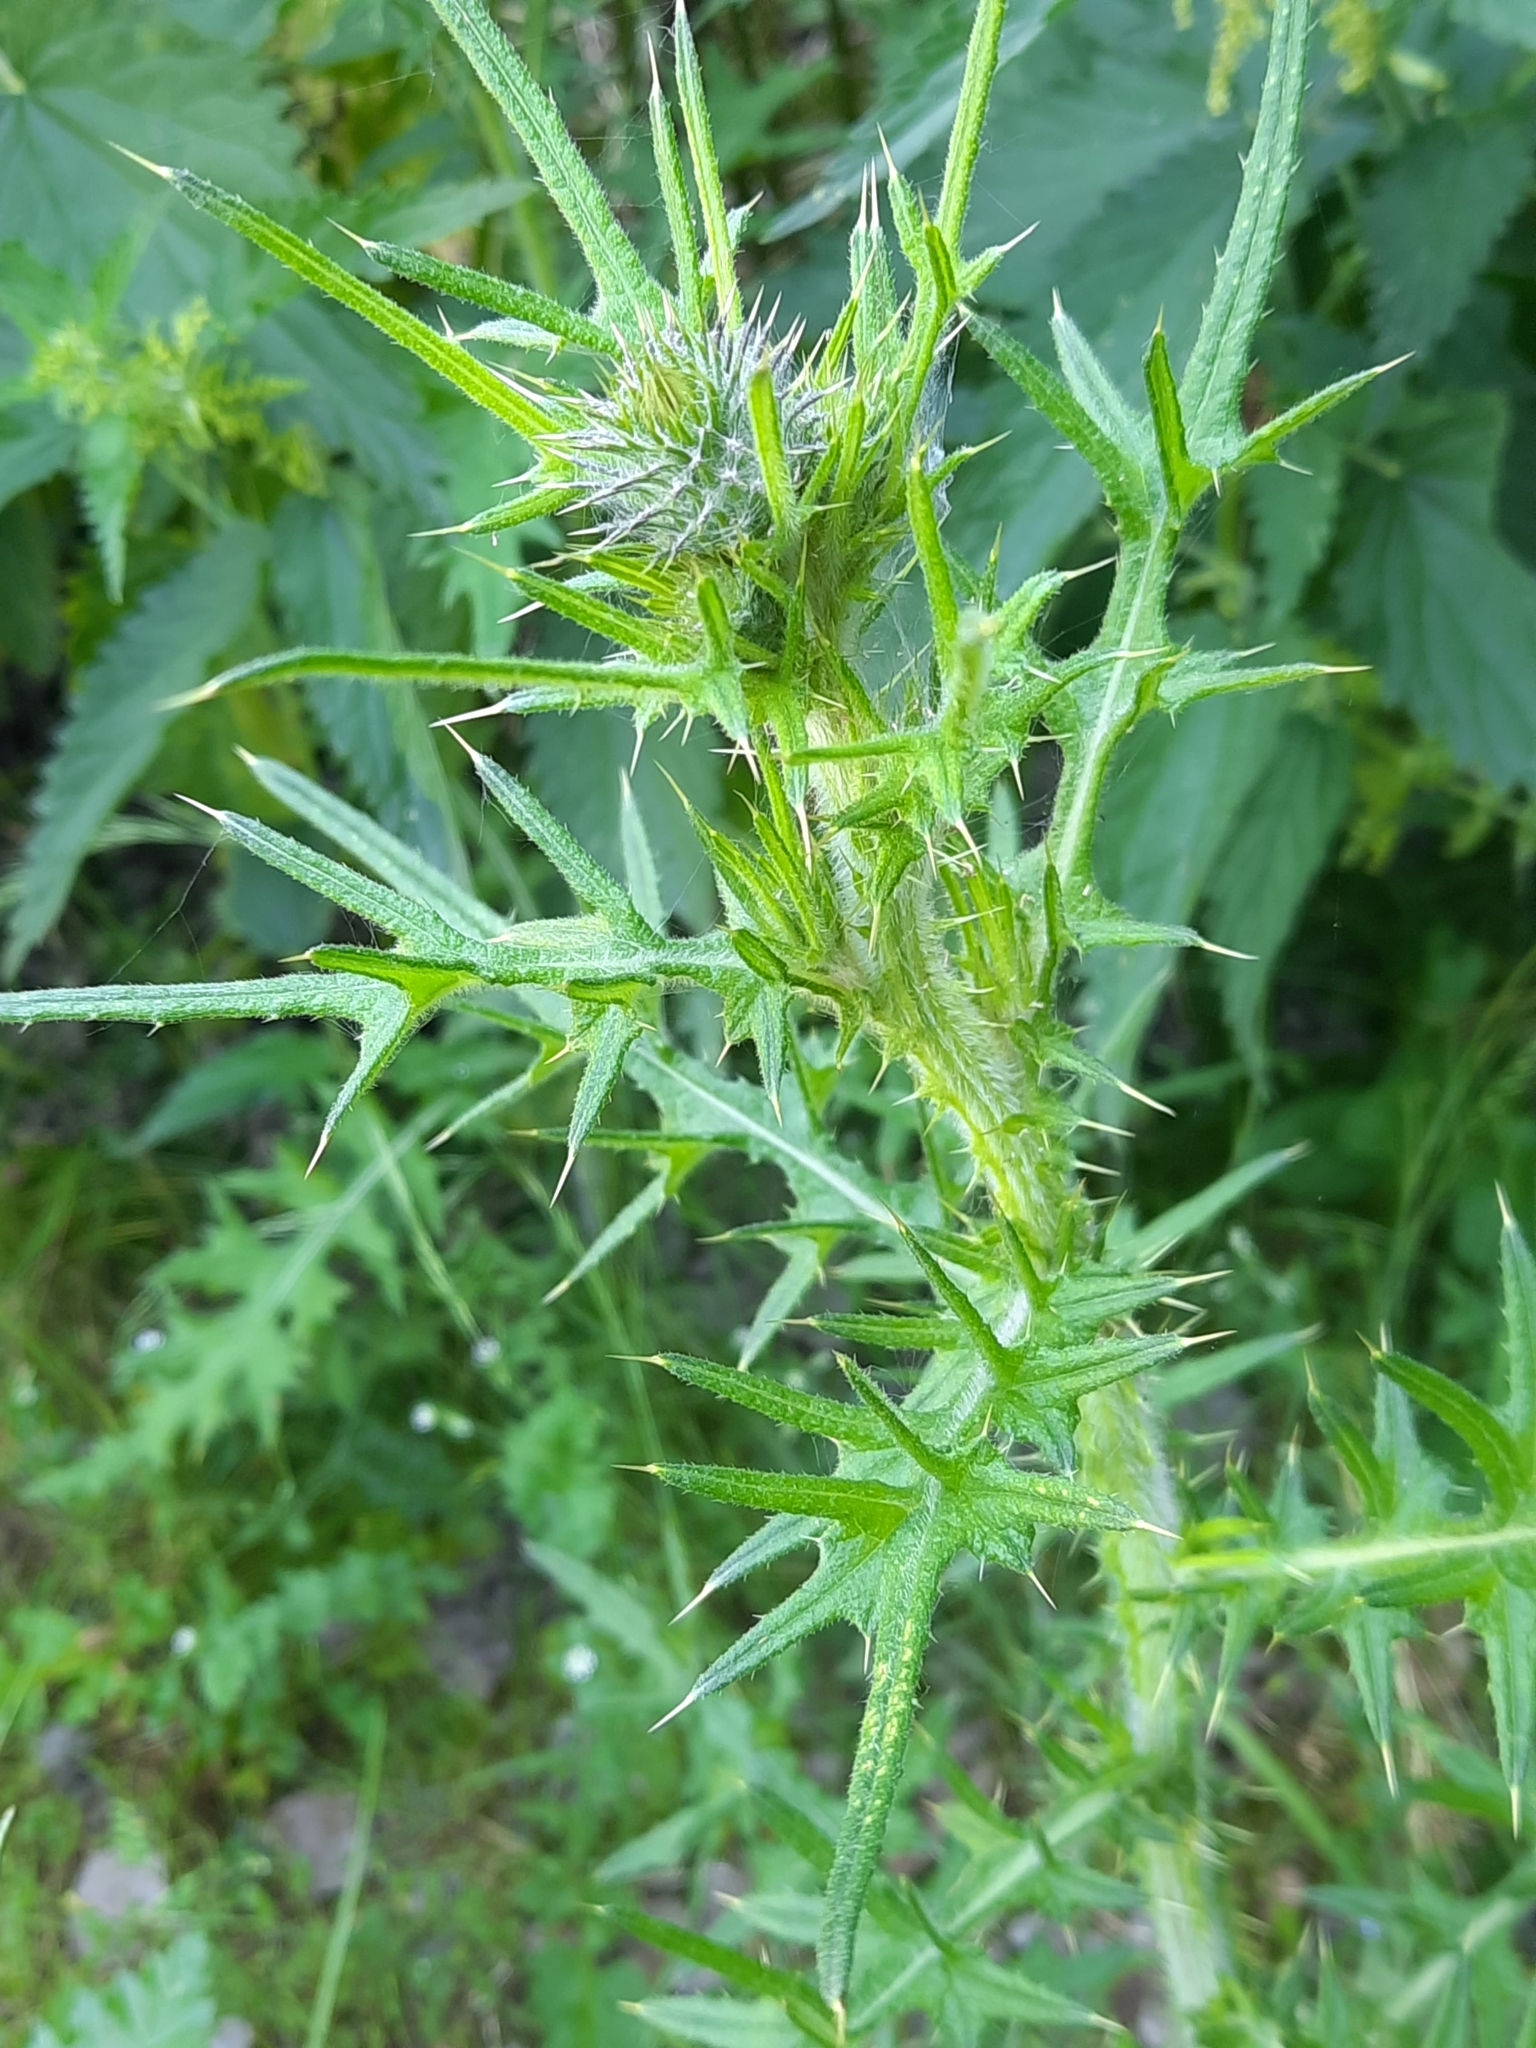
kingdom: Plantae
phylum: Tracheophyta
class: Magnoliopsida
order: Asterales
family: Asteraceae
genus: Cirsium
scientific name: Cirsium vulgare
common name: Bull thistle
